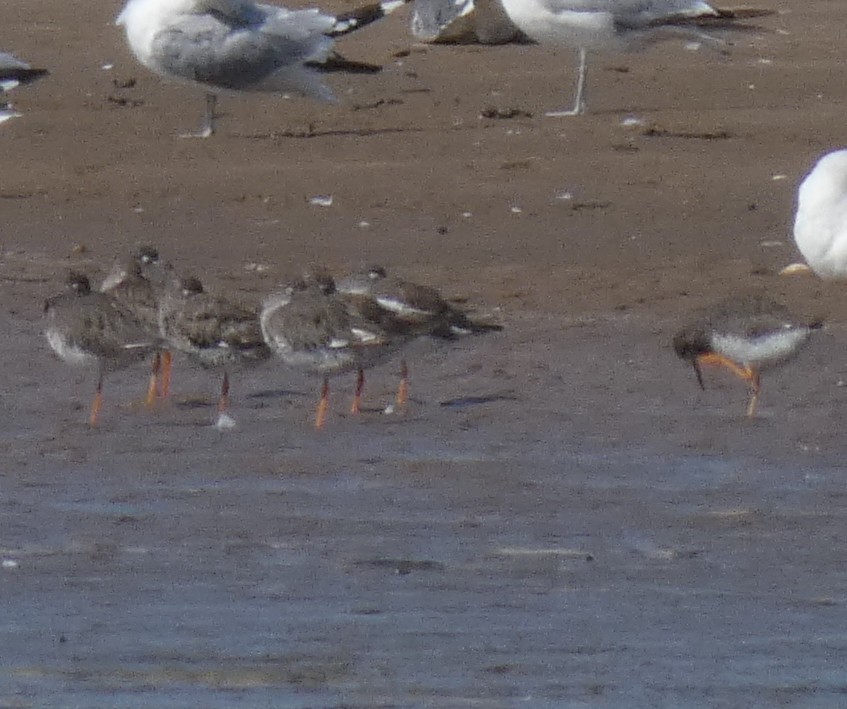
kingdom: Animalia
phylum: Chordata
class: Aves
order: Charadriiformes
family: Scolopacidae
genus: Tringa
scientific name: Tringa totanus
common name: Common redshank
